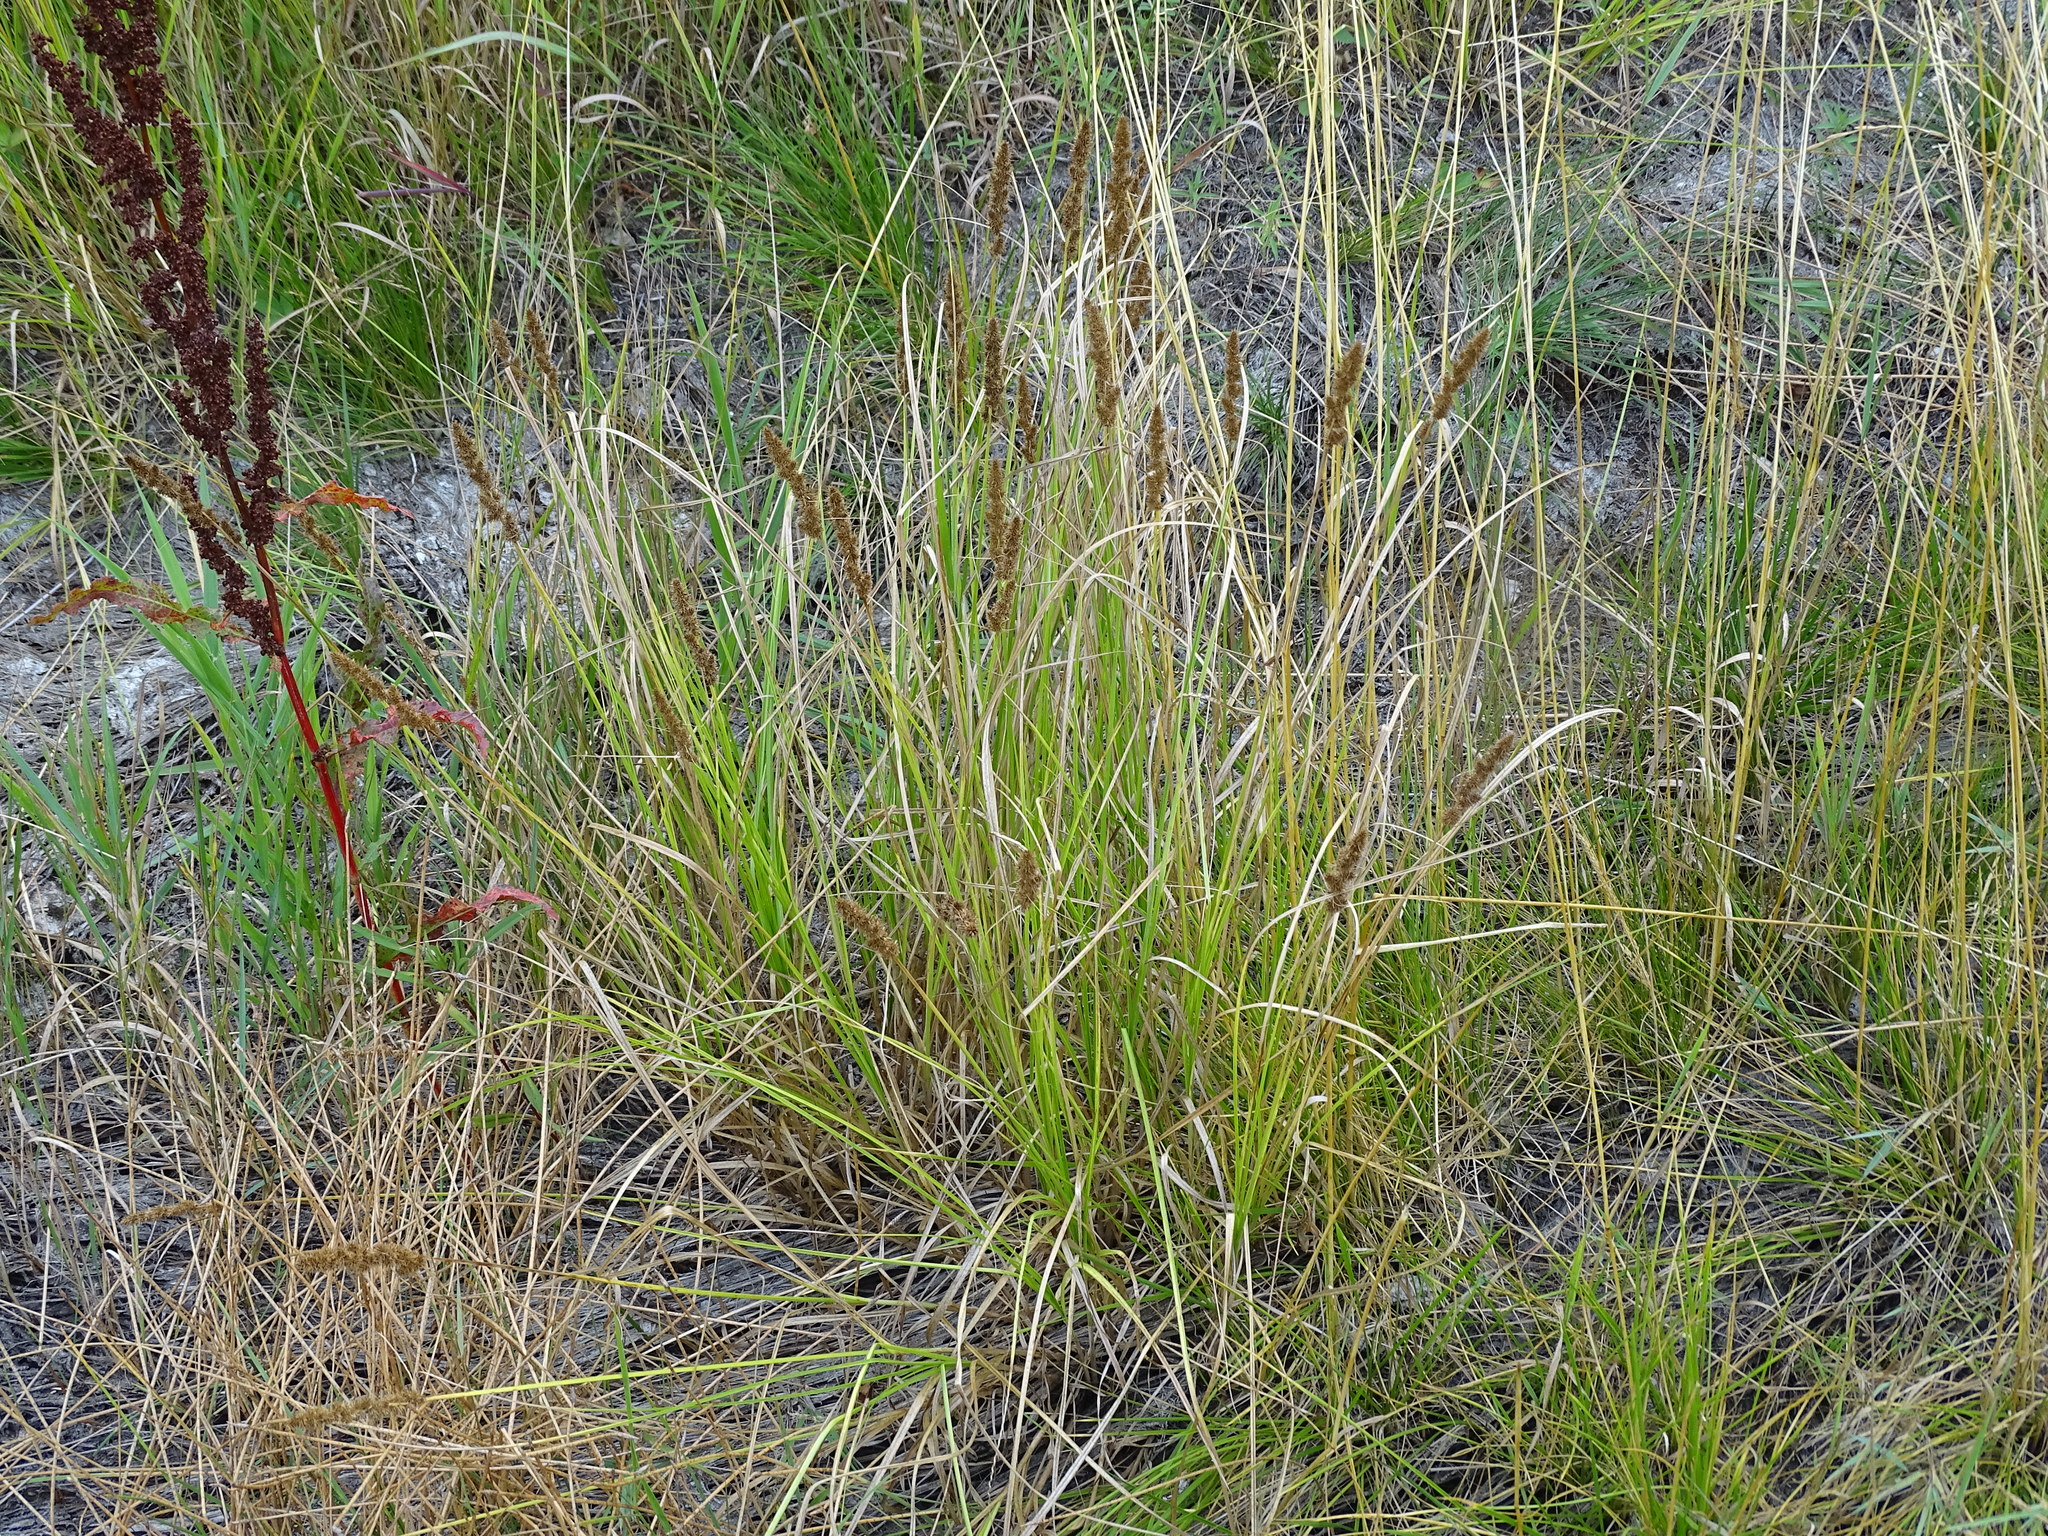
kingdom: Plantae
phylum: Tracheophyta
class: Liliopsida
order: Poales
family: Cyperaceae
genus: Carex
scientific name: Carex vulpinoidea
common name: American fox-sedge
